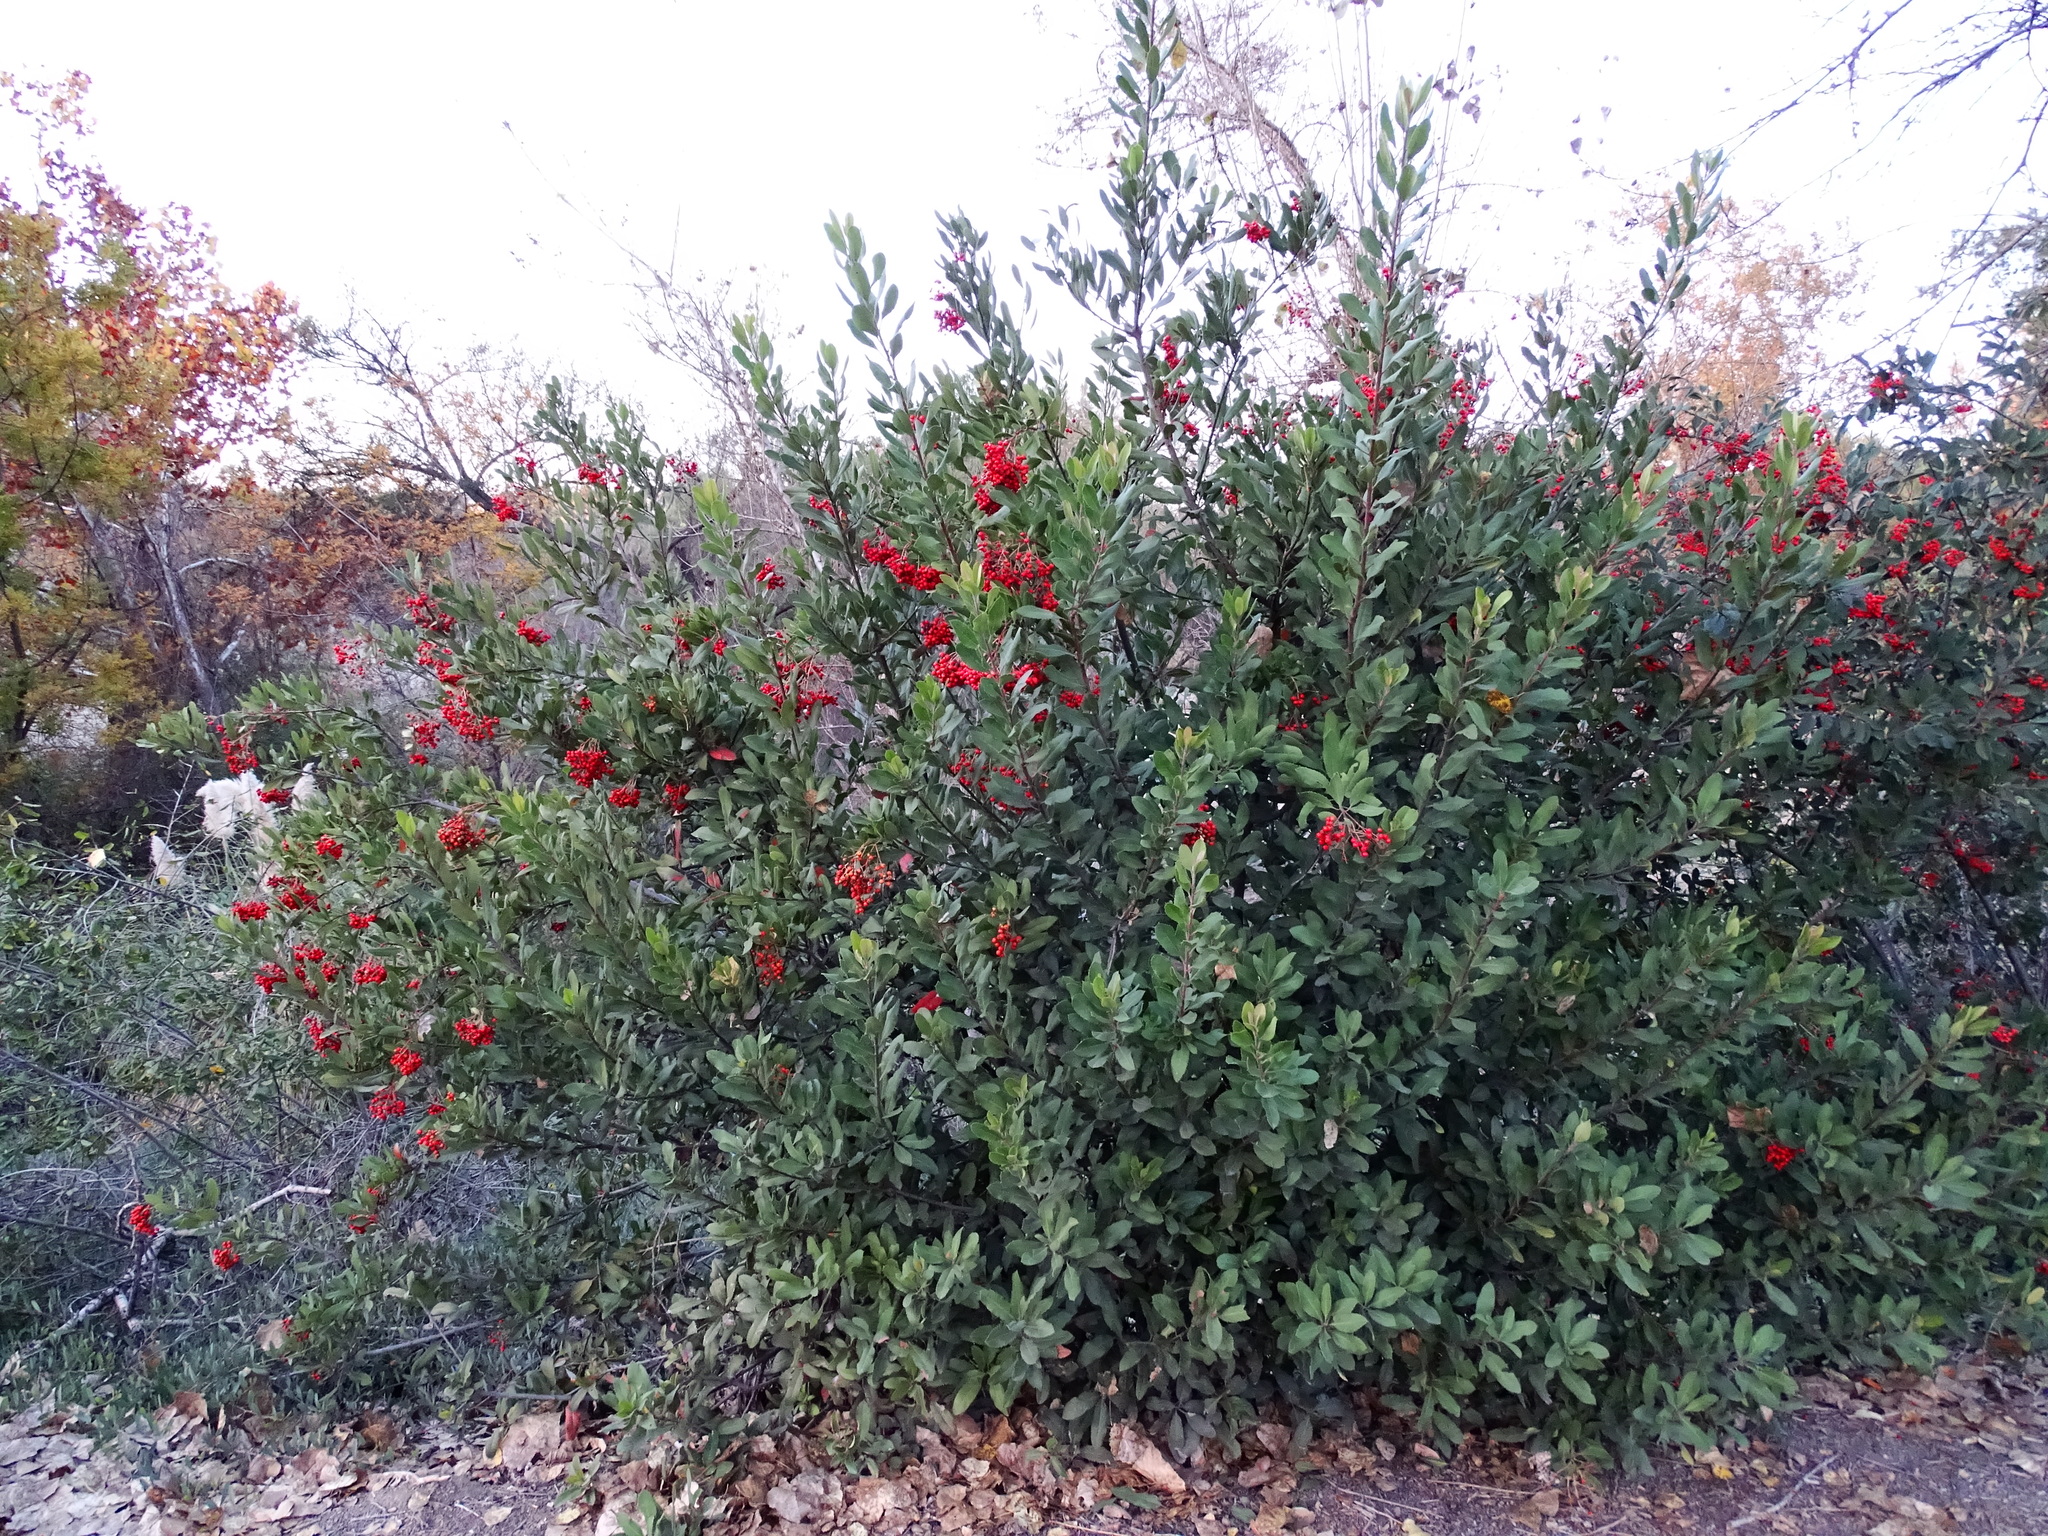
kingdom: Plantae
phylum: Tracheophyta
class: Magnoliopsida
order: Rosales
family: Rosaceae
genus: Heteromeles
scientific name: Heteromeles arbutifolia
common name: California-holly
